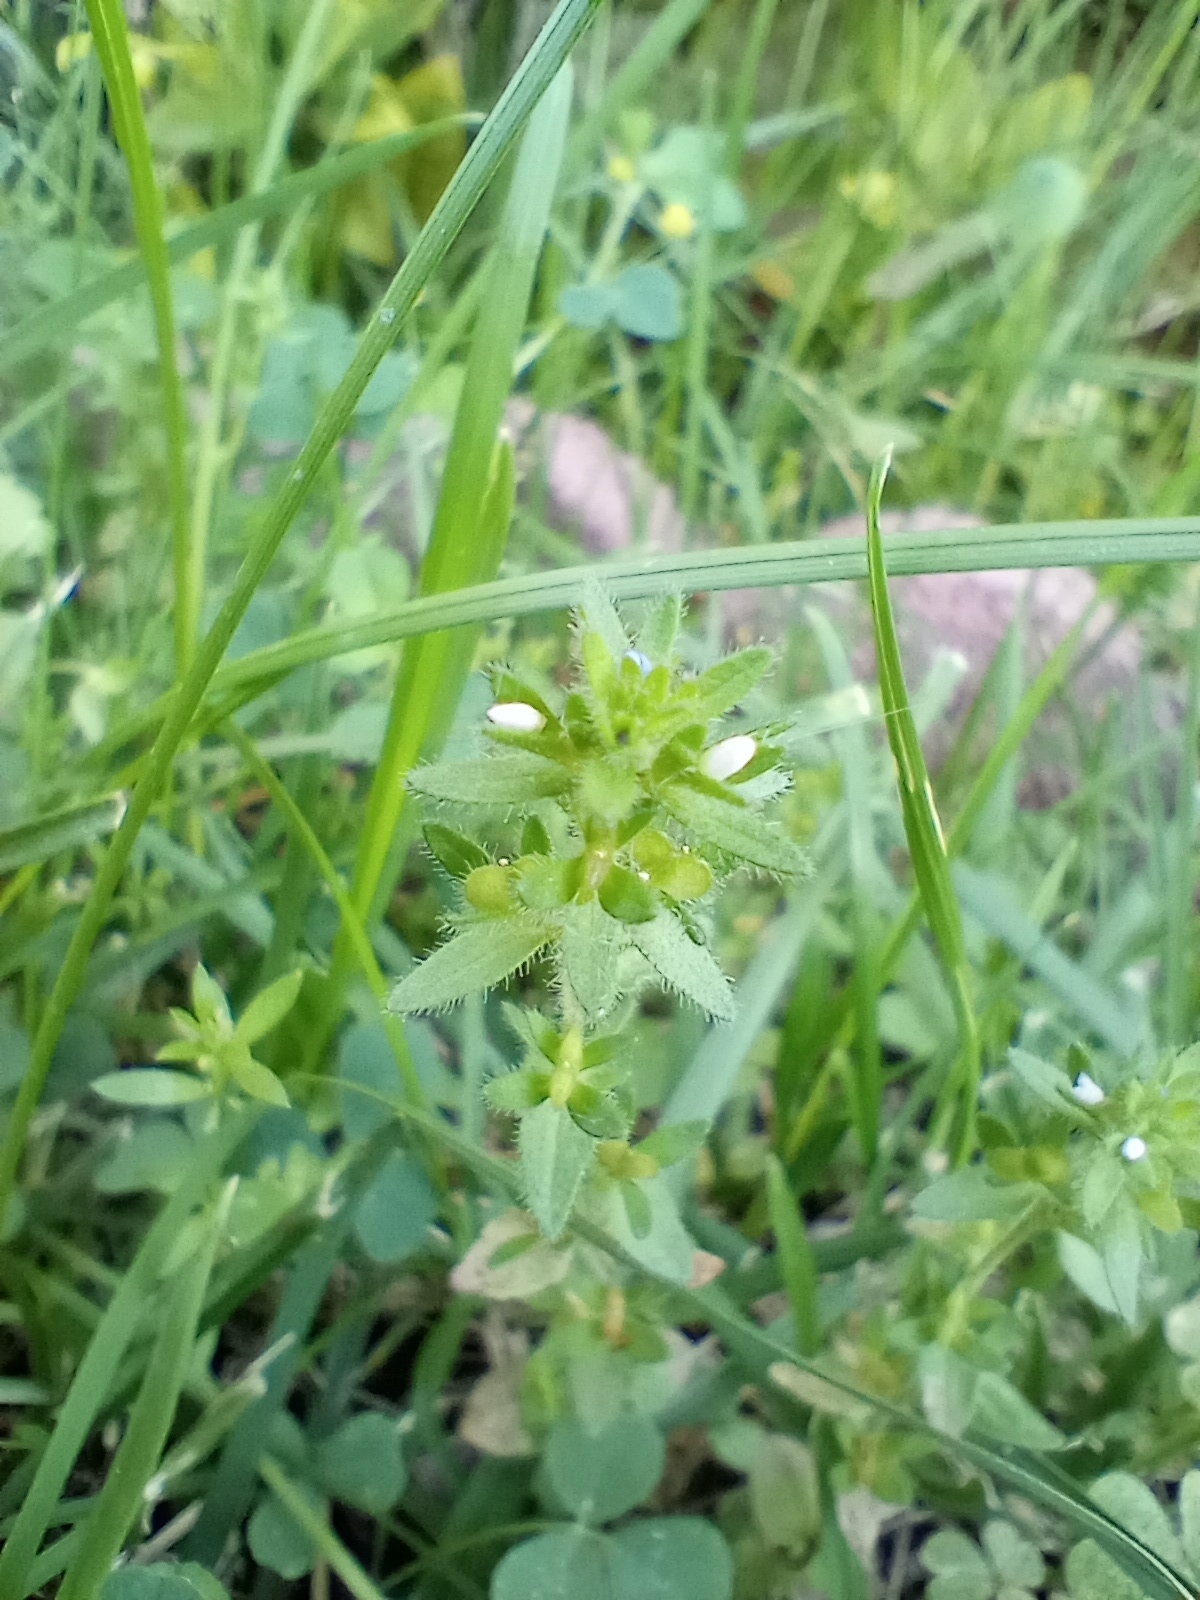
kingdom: Plantae
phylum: Tracheophyta
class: Magnoliopsida
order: Lamiales
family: Plantaginaceae
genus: Veronica
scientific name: Veronica arvensis
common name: Corn speedwell
